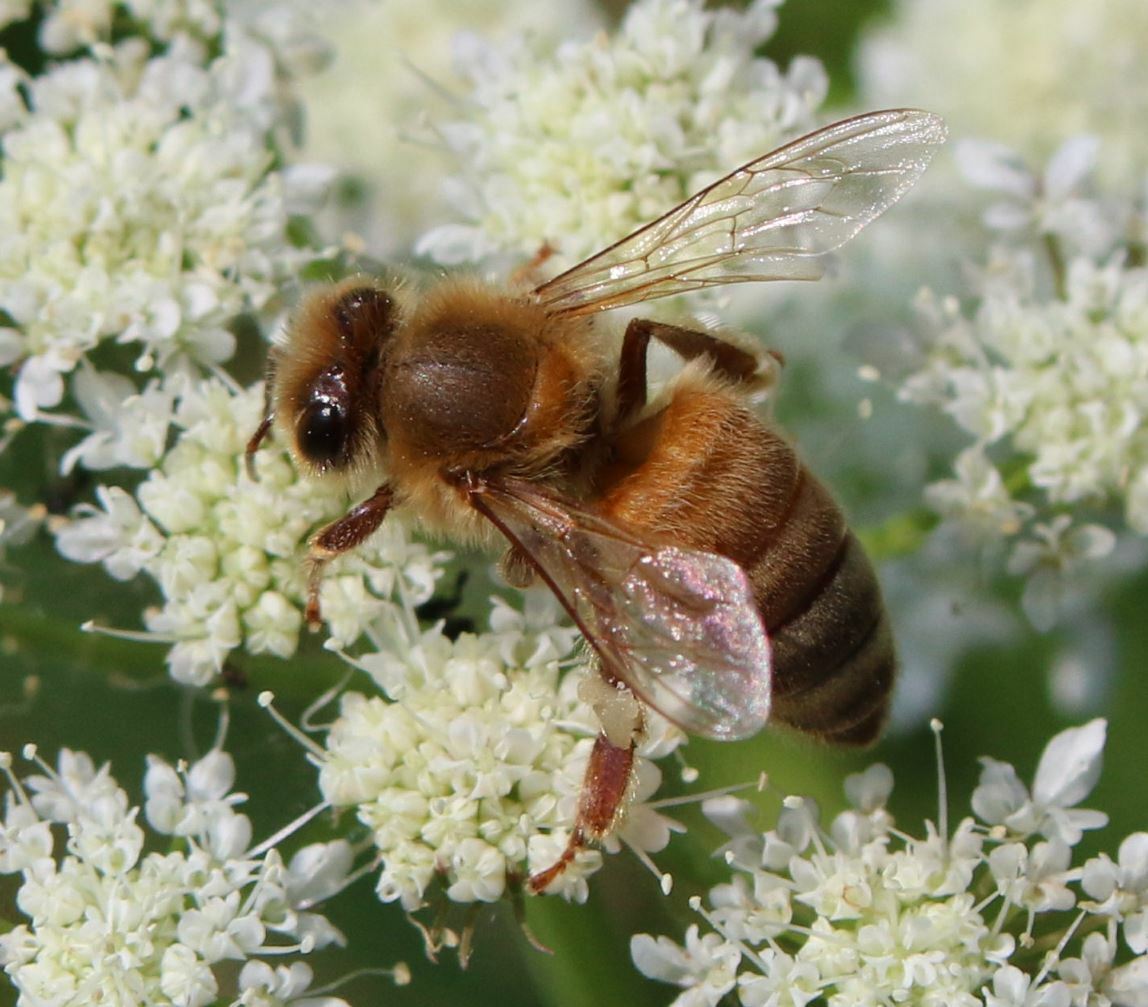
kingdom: Animalia
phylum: Arthropoda
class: Insecta
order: Hymenoptera
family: Apidae
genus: Apis
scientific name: Apis mellifera
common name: Honey bee
